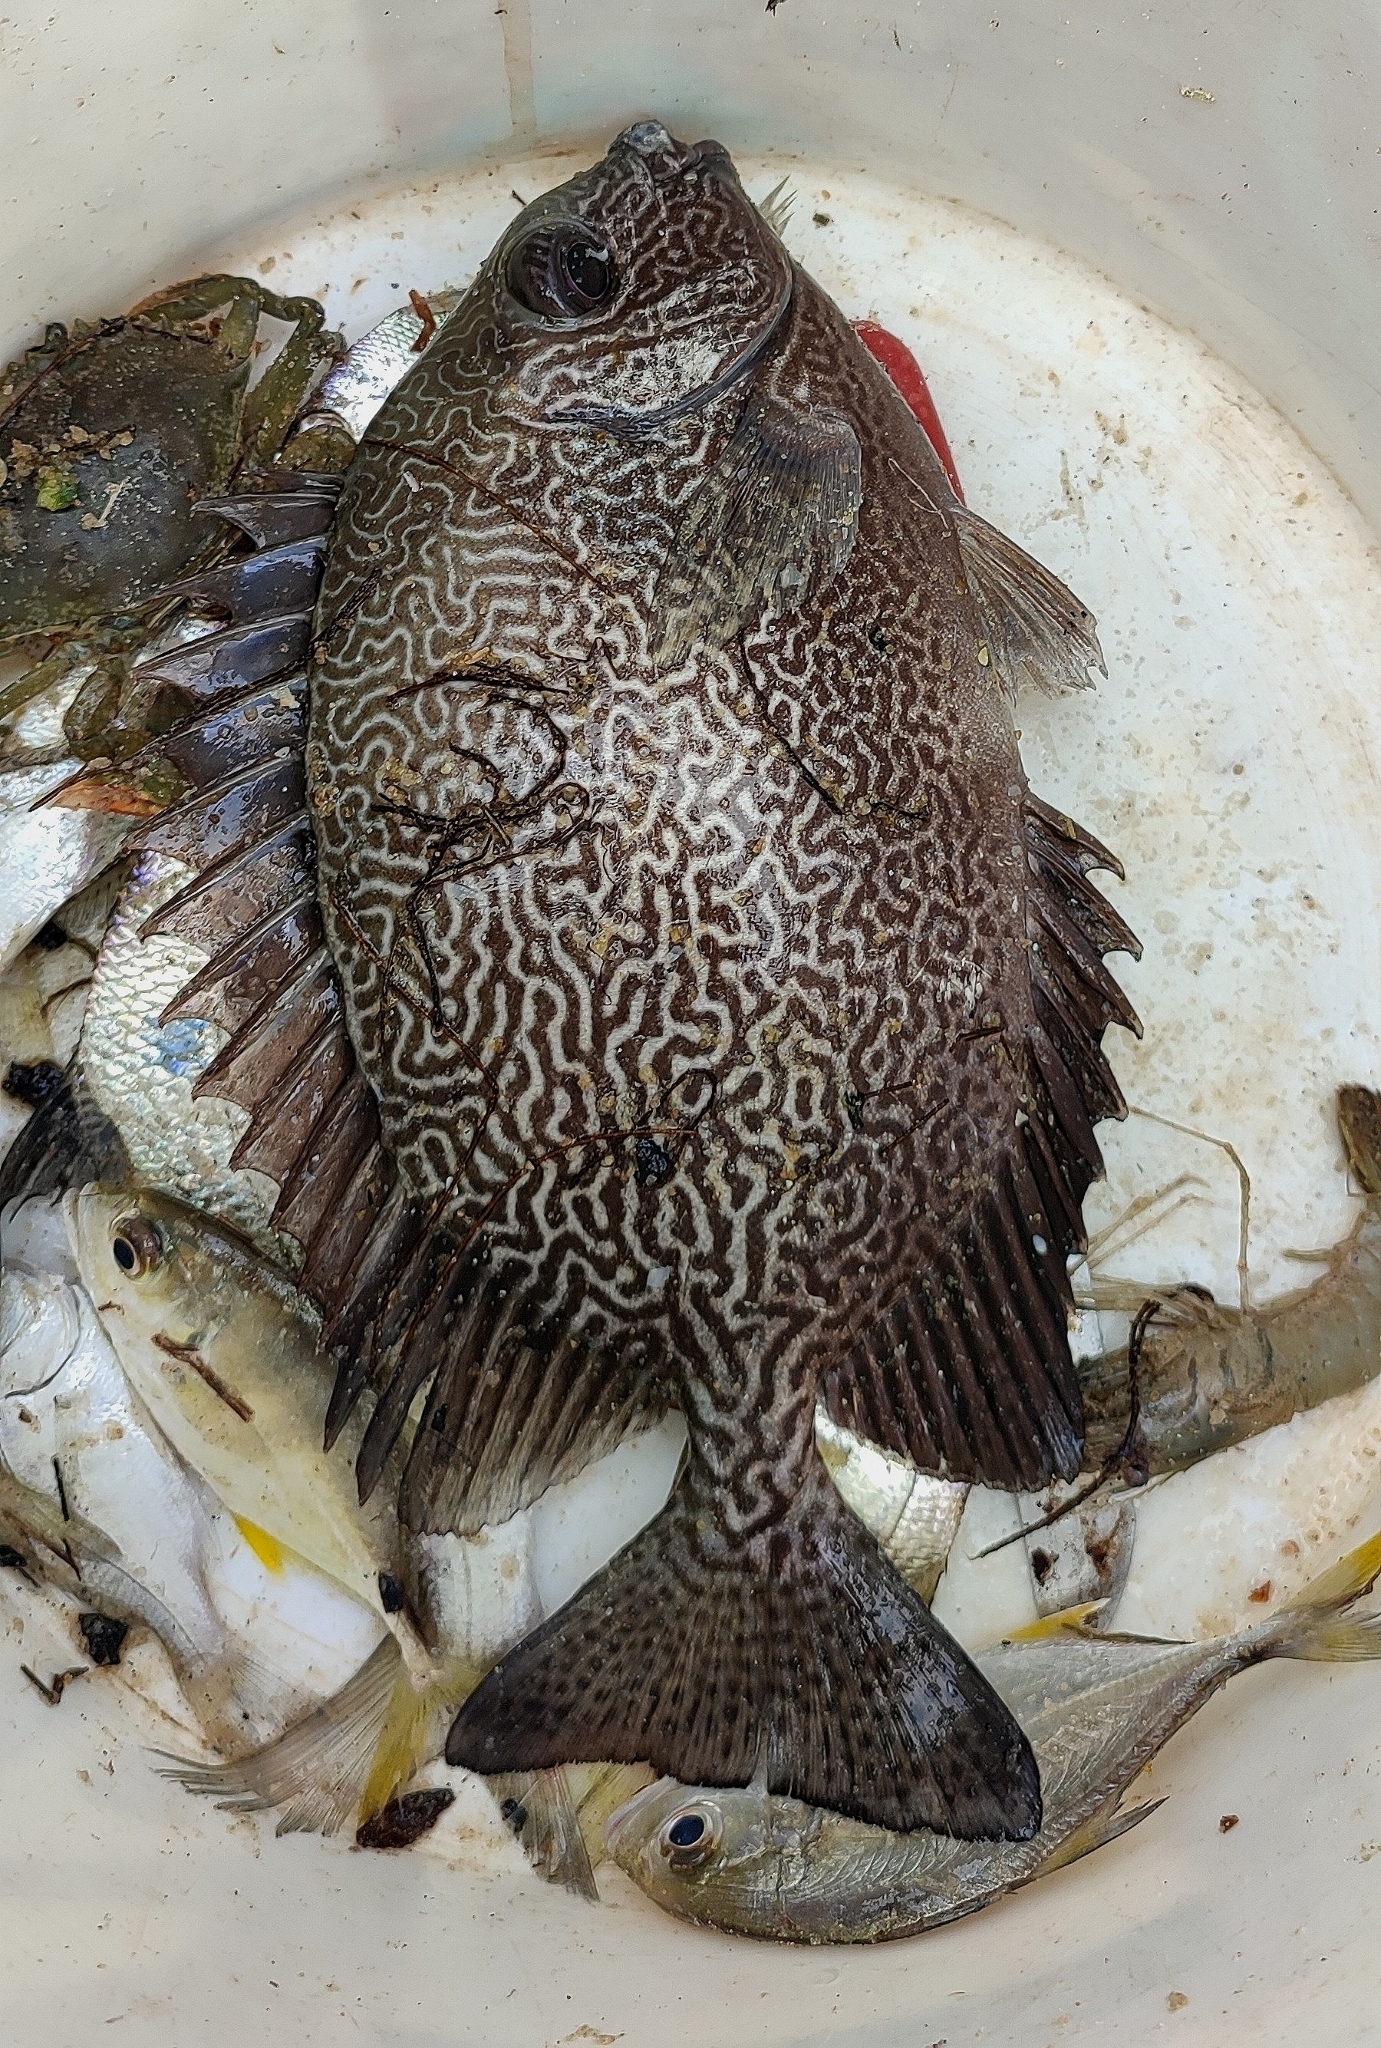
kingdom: Animalia
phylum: Chordata
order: Perciformes
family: Siganidae
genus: Siganus
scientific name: Siganus vermiculatus
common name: Vermiculated spinefoot
